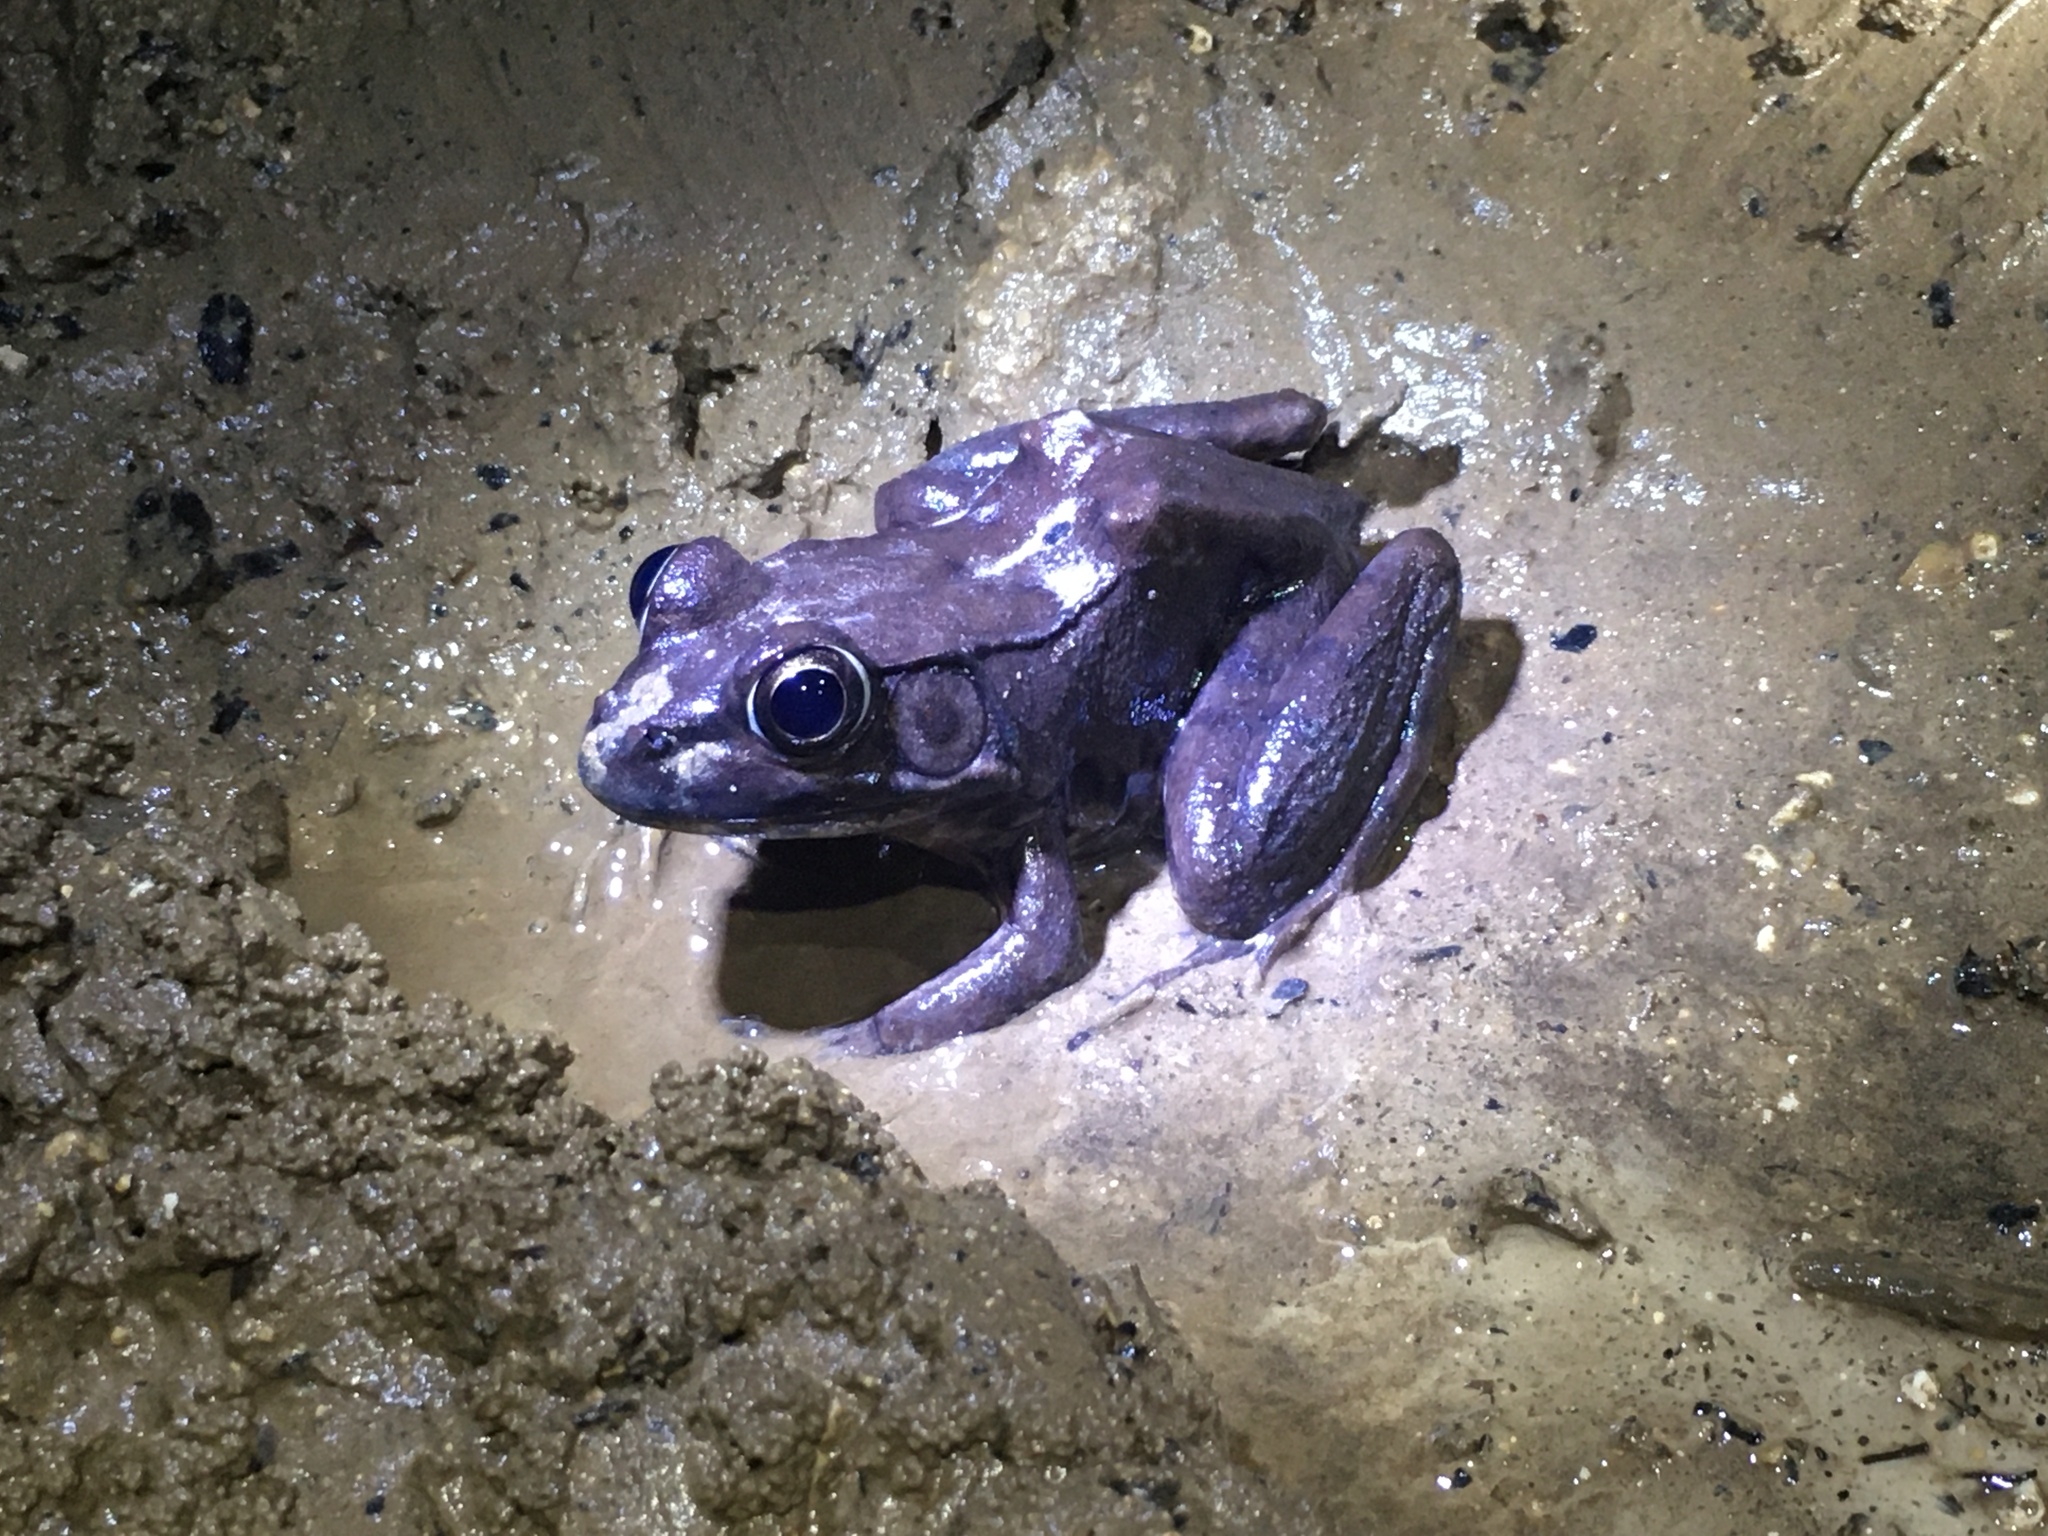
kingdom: Animalia
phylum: Chordata
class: Amphibia
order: Anura
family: Ranidae
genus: Lithobates
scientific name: Lithobates clamitans
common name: Green frog
